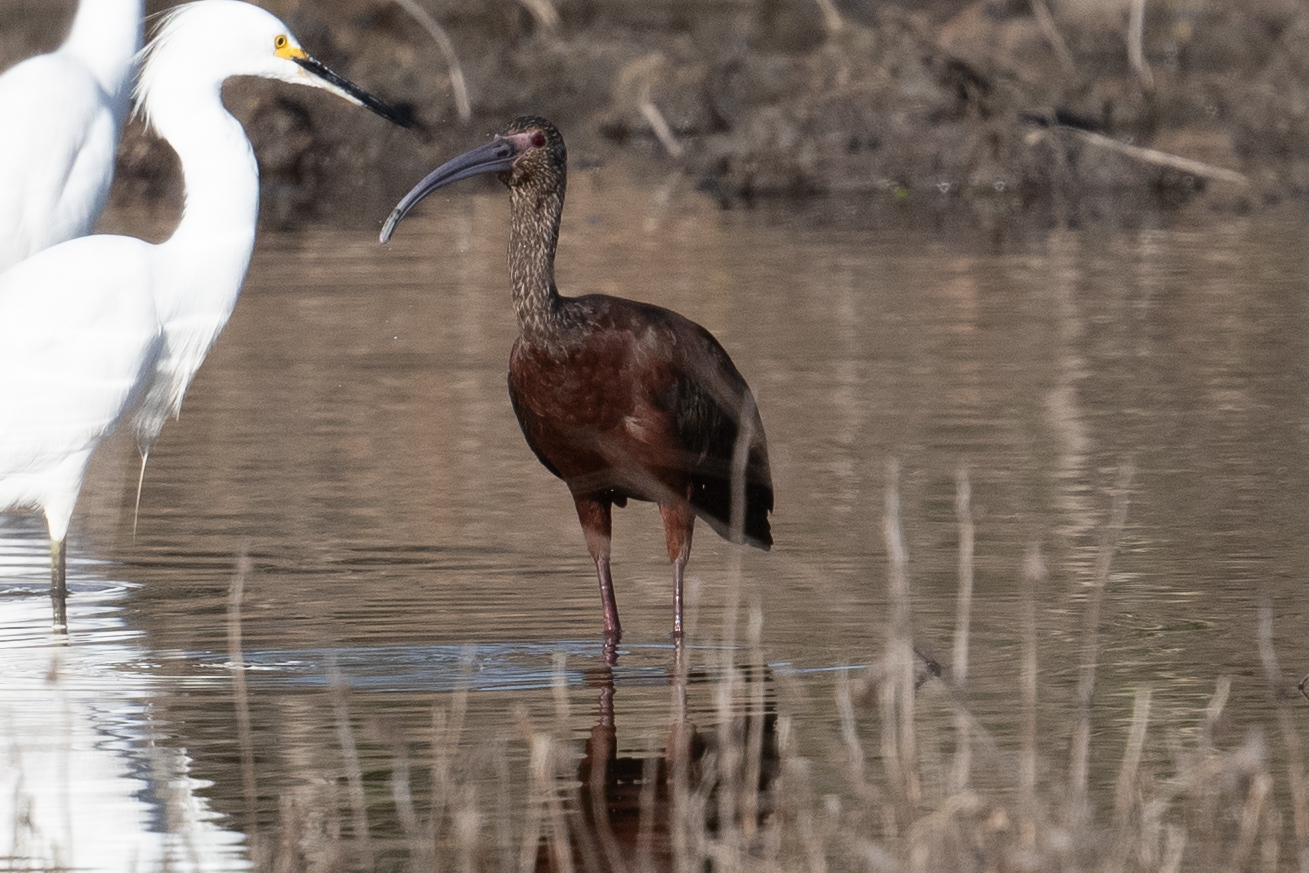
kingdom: Animalia
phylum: Chordata
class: Aves
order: Pelecaniformes
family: Threskiornithidae
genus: Plegadis
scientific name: Plegadis chihi
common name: White-faced ibis
